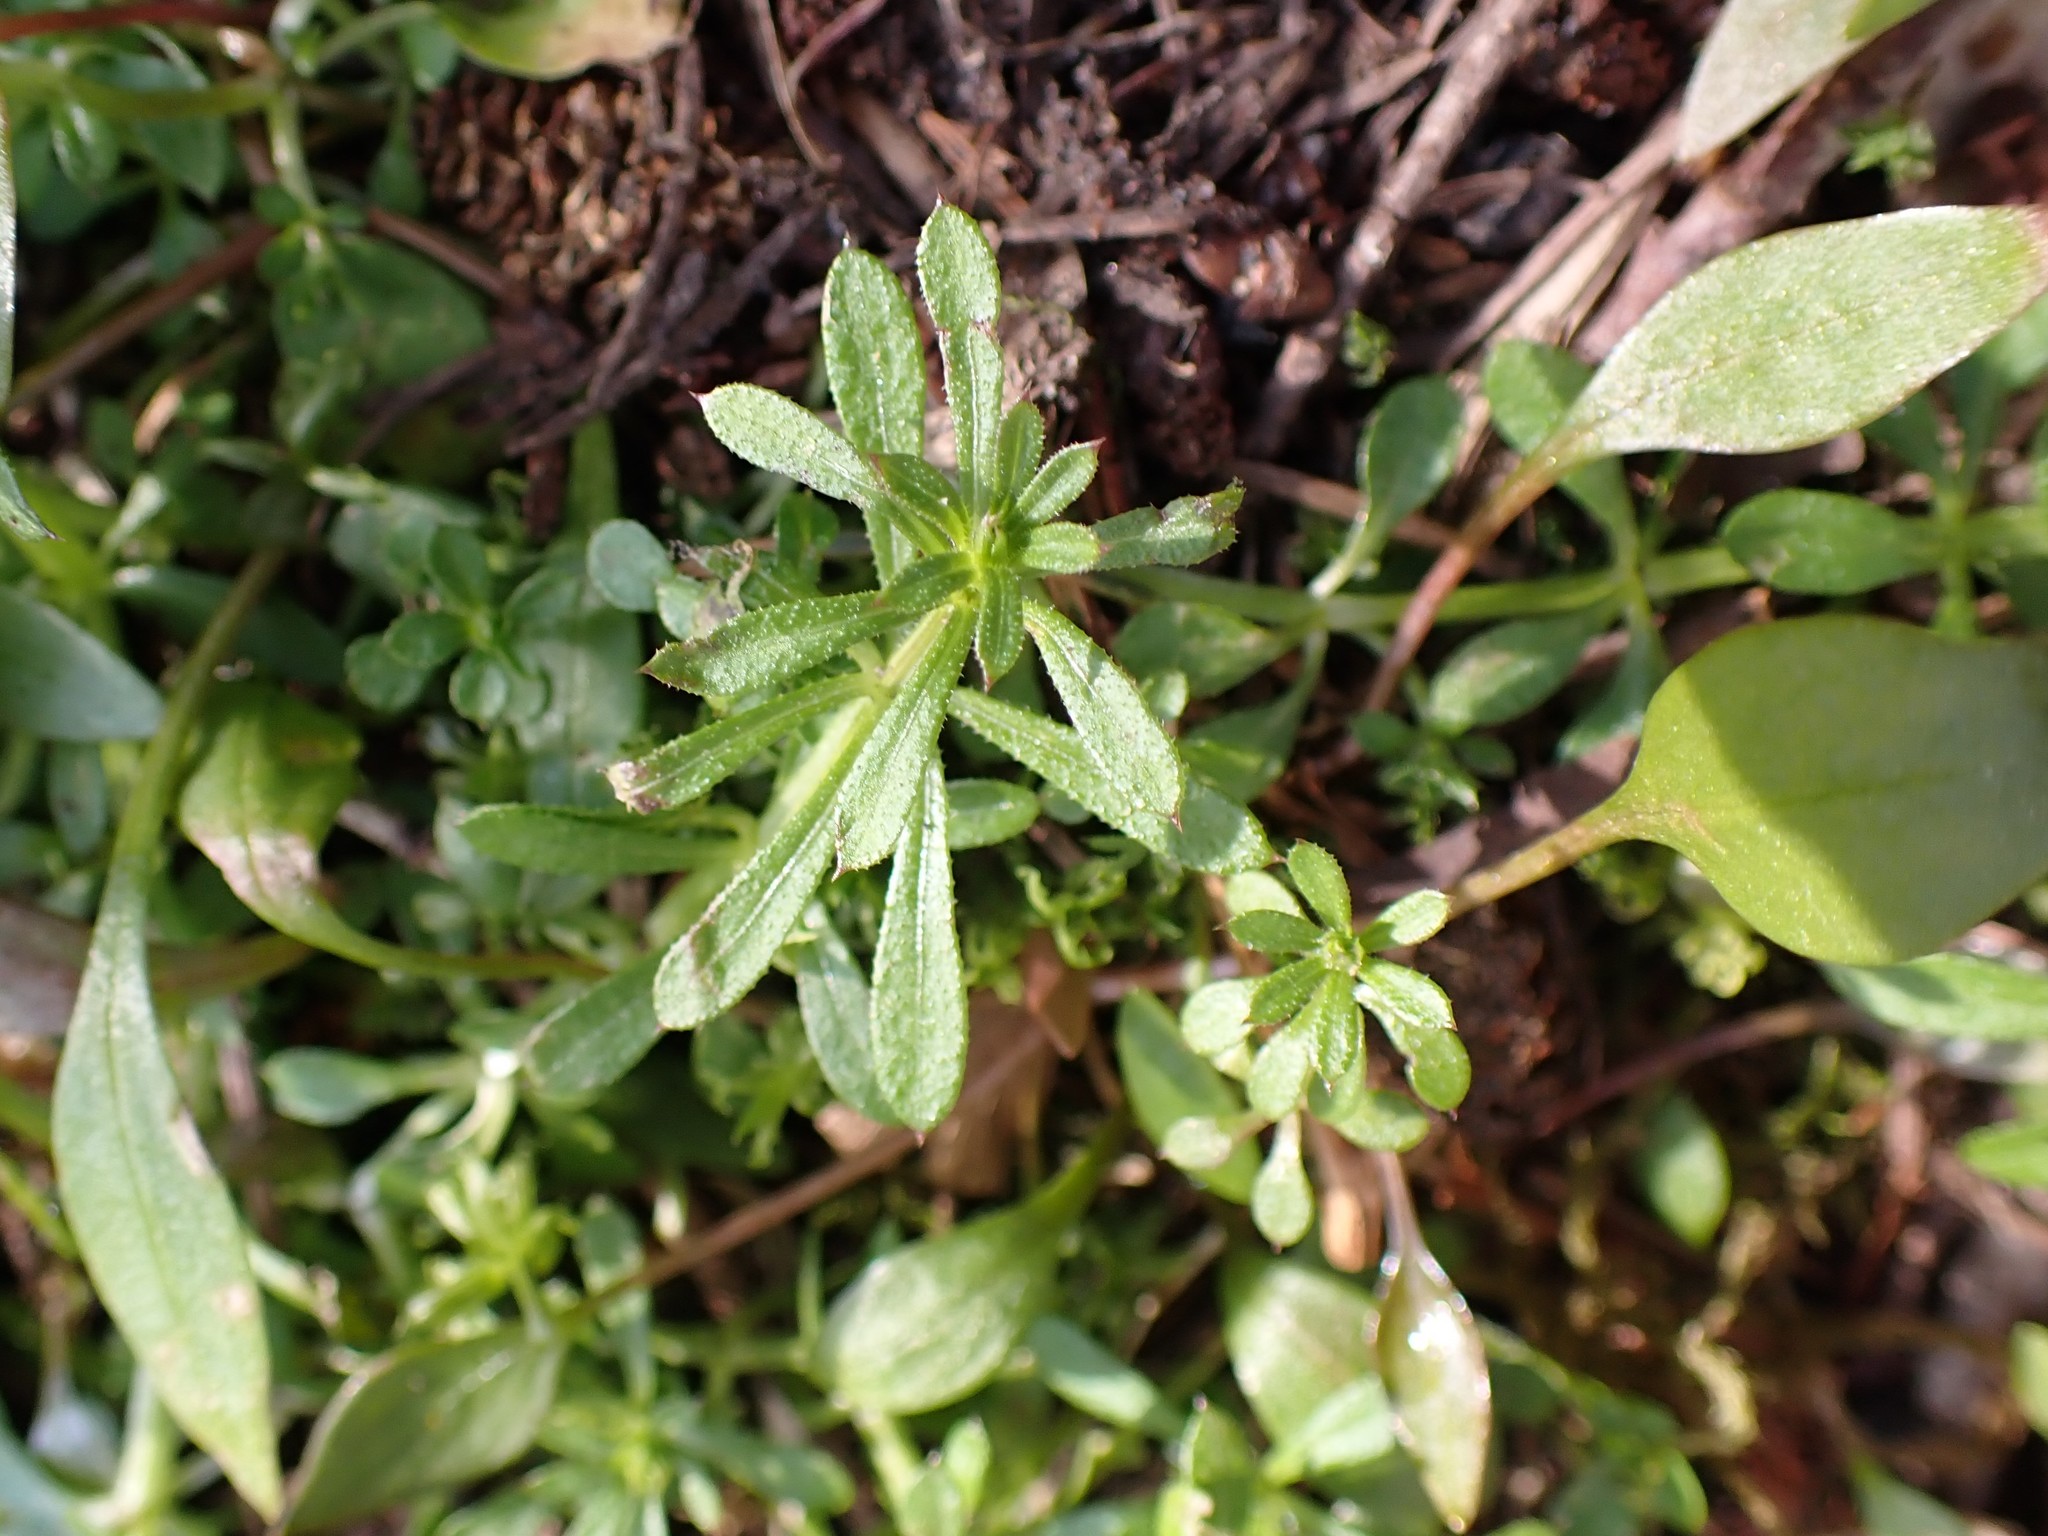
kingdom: Plantae
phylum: Tracheophyta
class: Magnoliopsida
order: Gentianales
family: Rubiaceae
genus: Galium
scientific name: Galium aparine
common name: Cleavers
